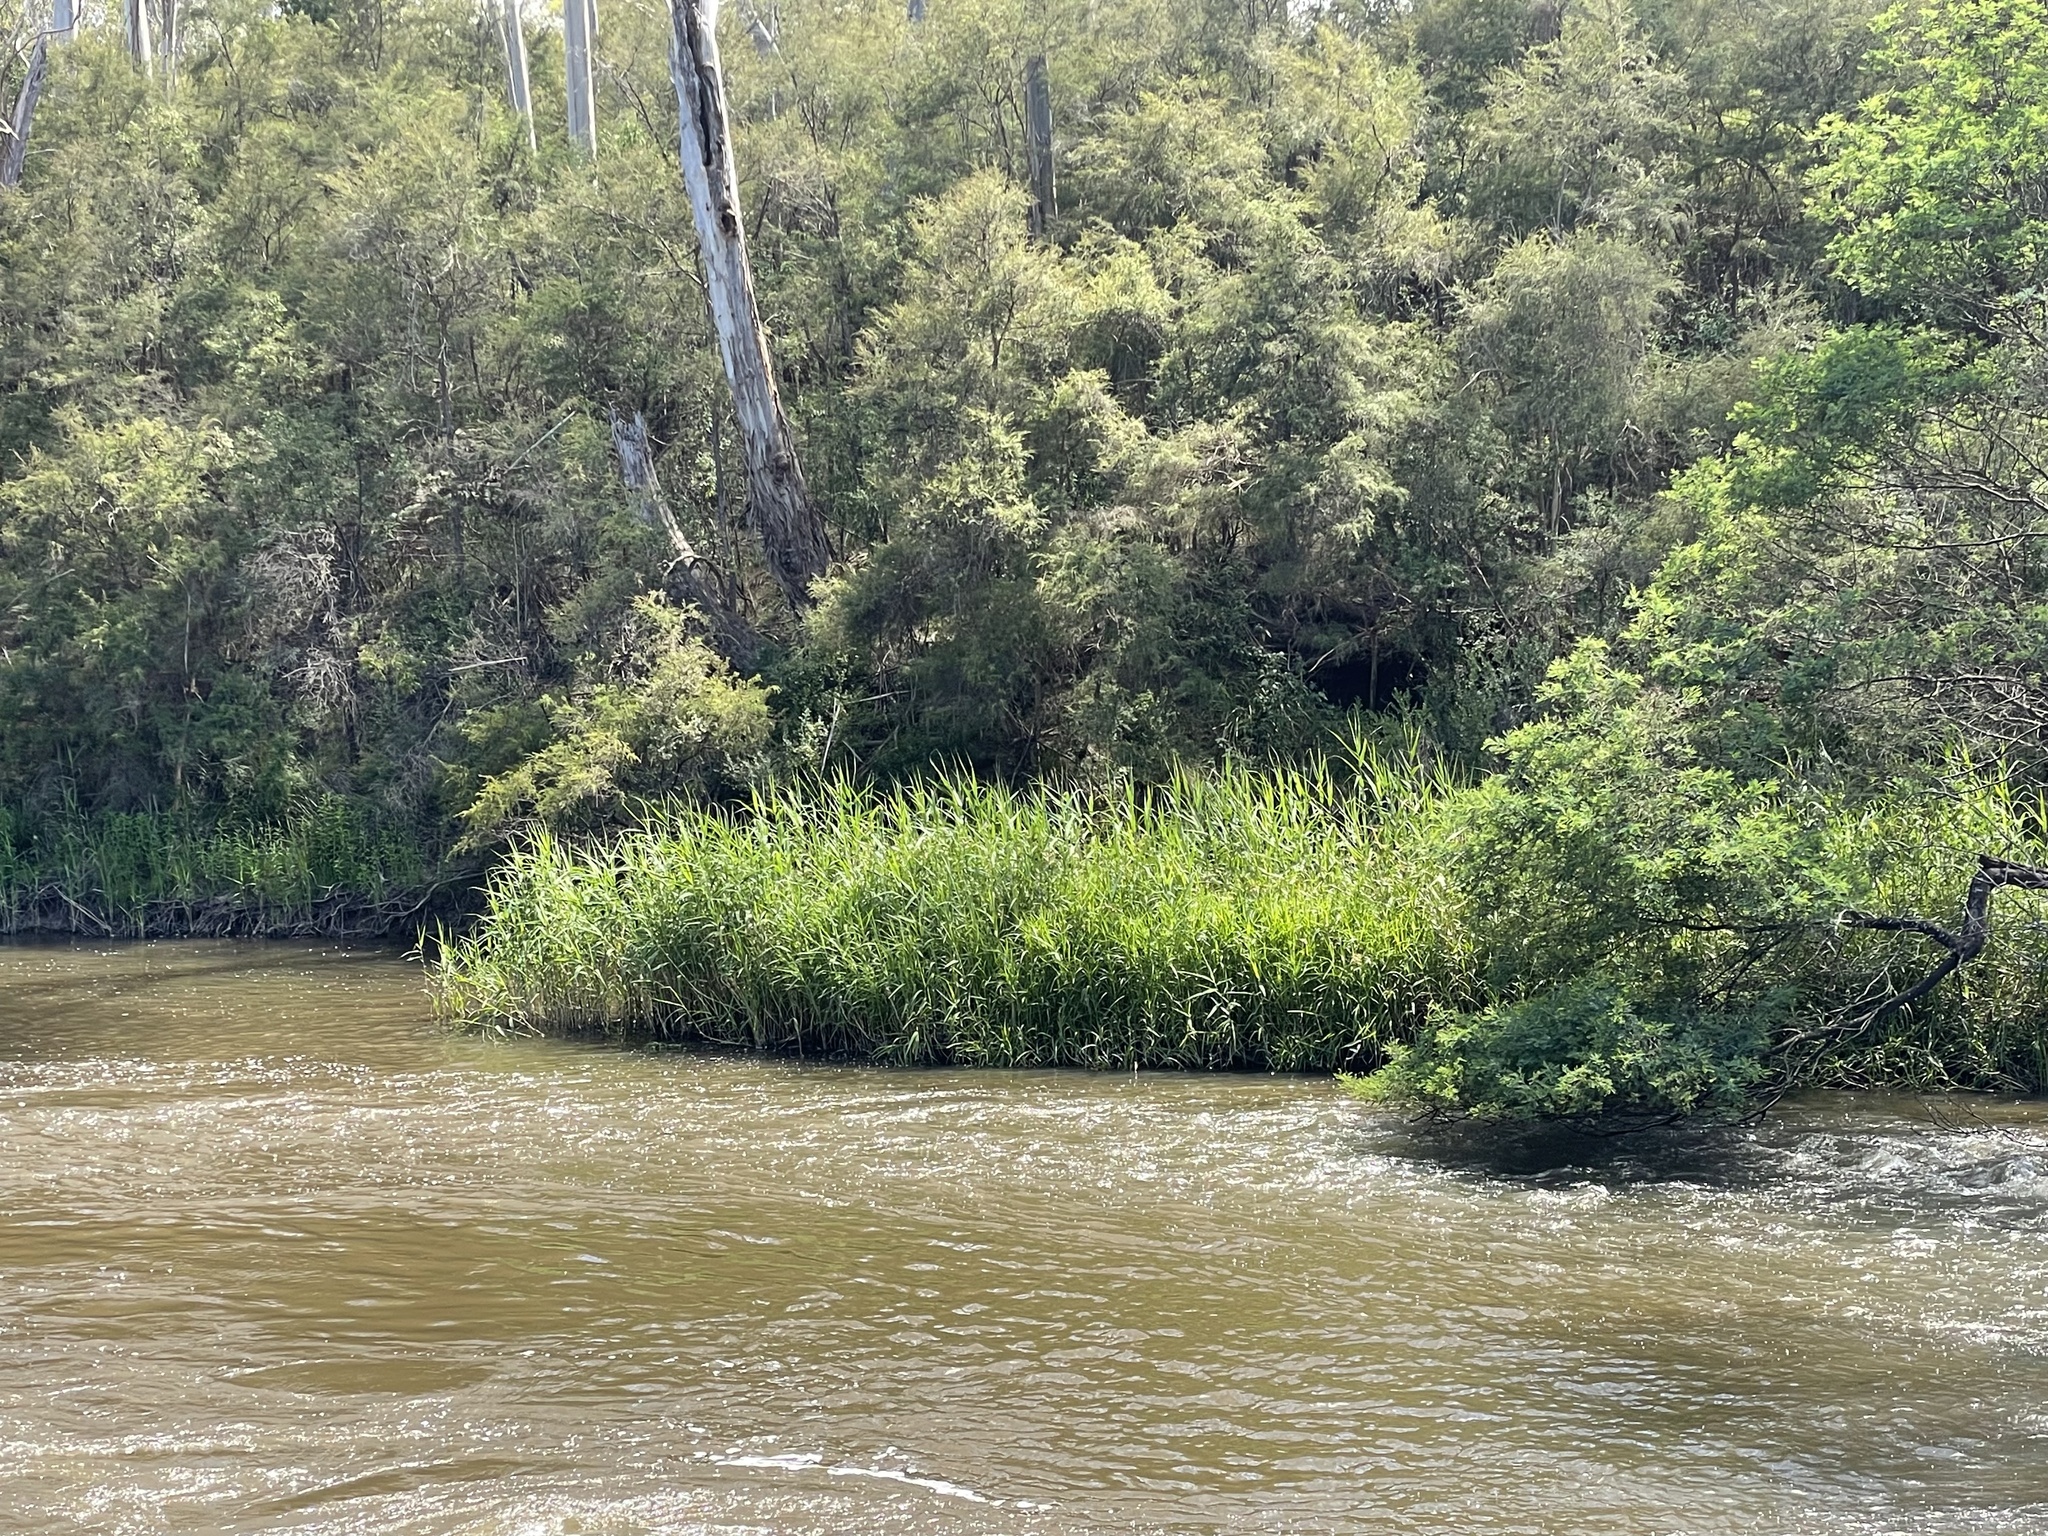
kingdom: Plantae
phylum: Tracheophyta
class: Liliopsida
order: Poales
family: Poaceae
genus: Phragmites
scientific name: Phragmites australis
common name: Common reed
